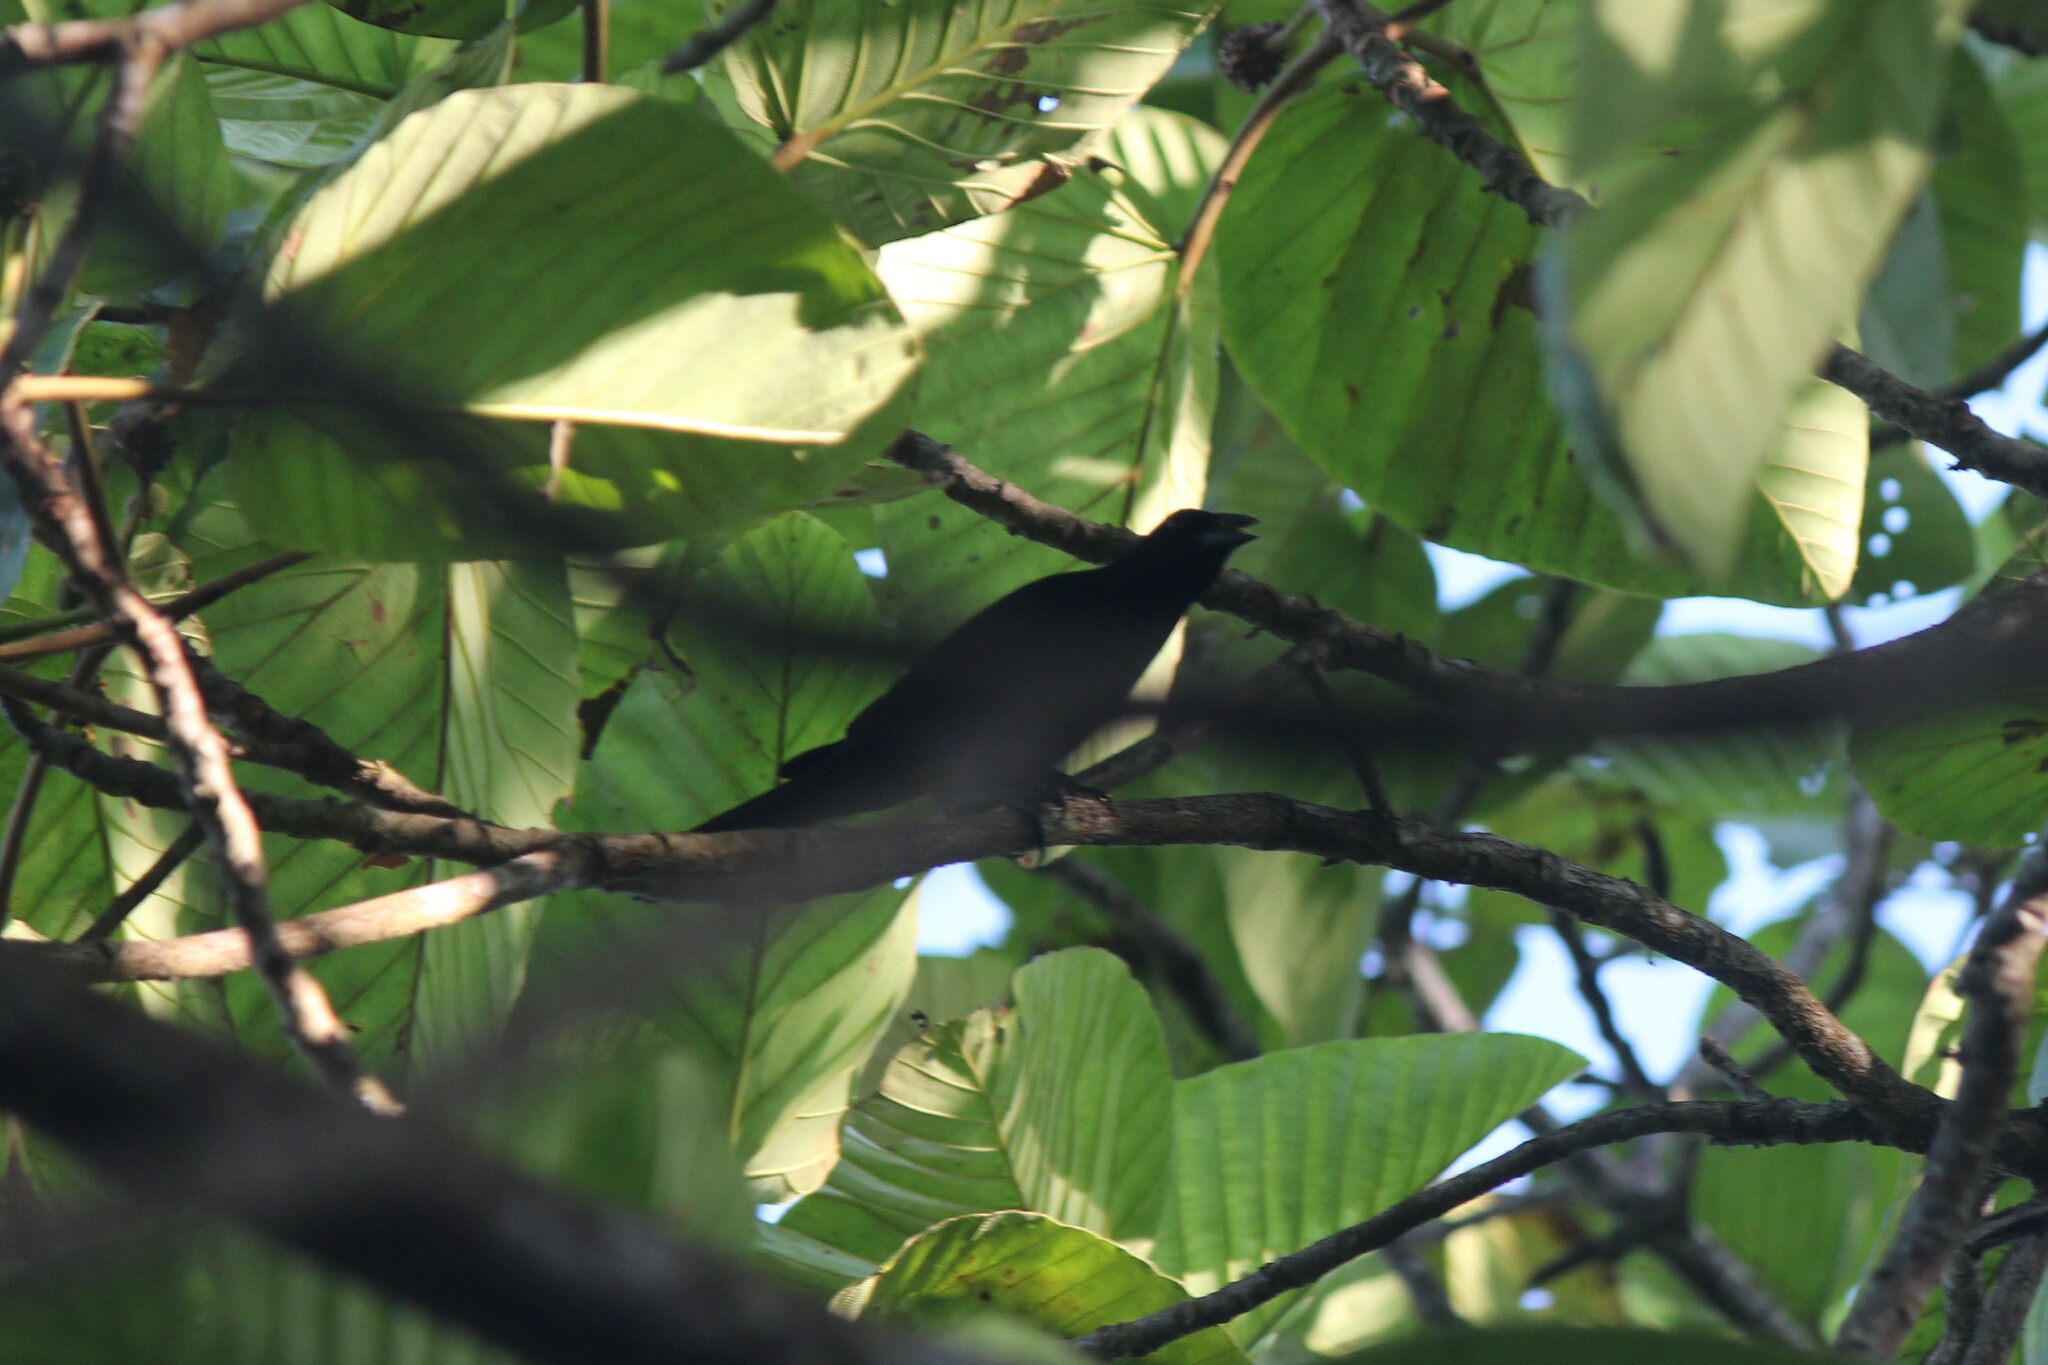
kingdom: Animalia
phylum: Chordata
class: Aves
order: Passeriformes
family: Thraupidae
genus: Ramphocelus
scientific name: Ramphocelus icteronotus
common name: Lemon-rumped tanager
